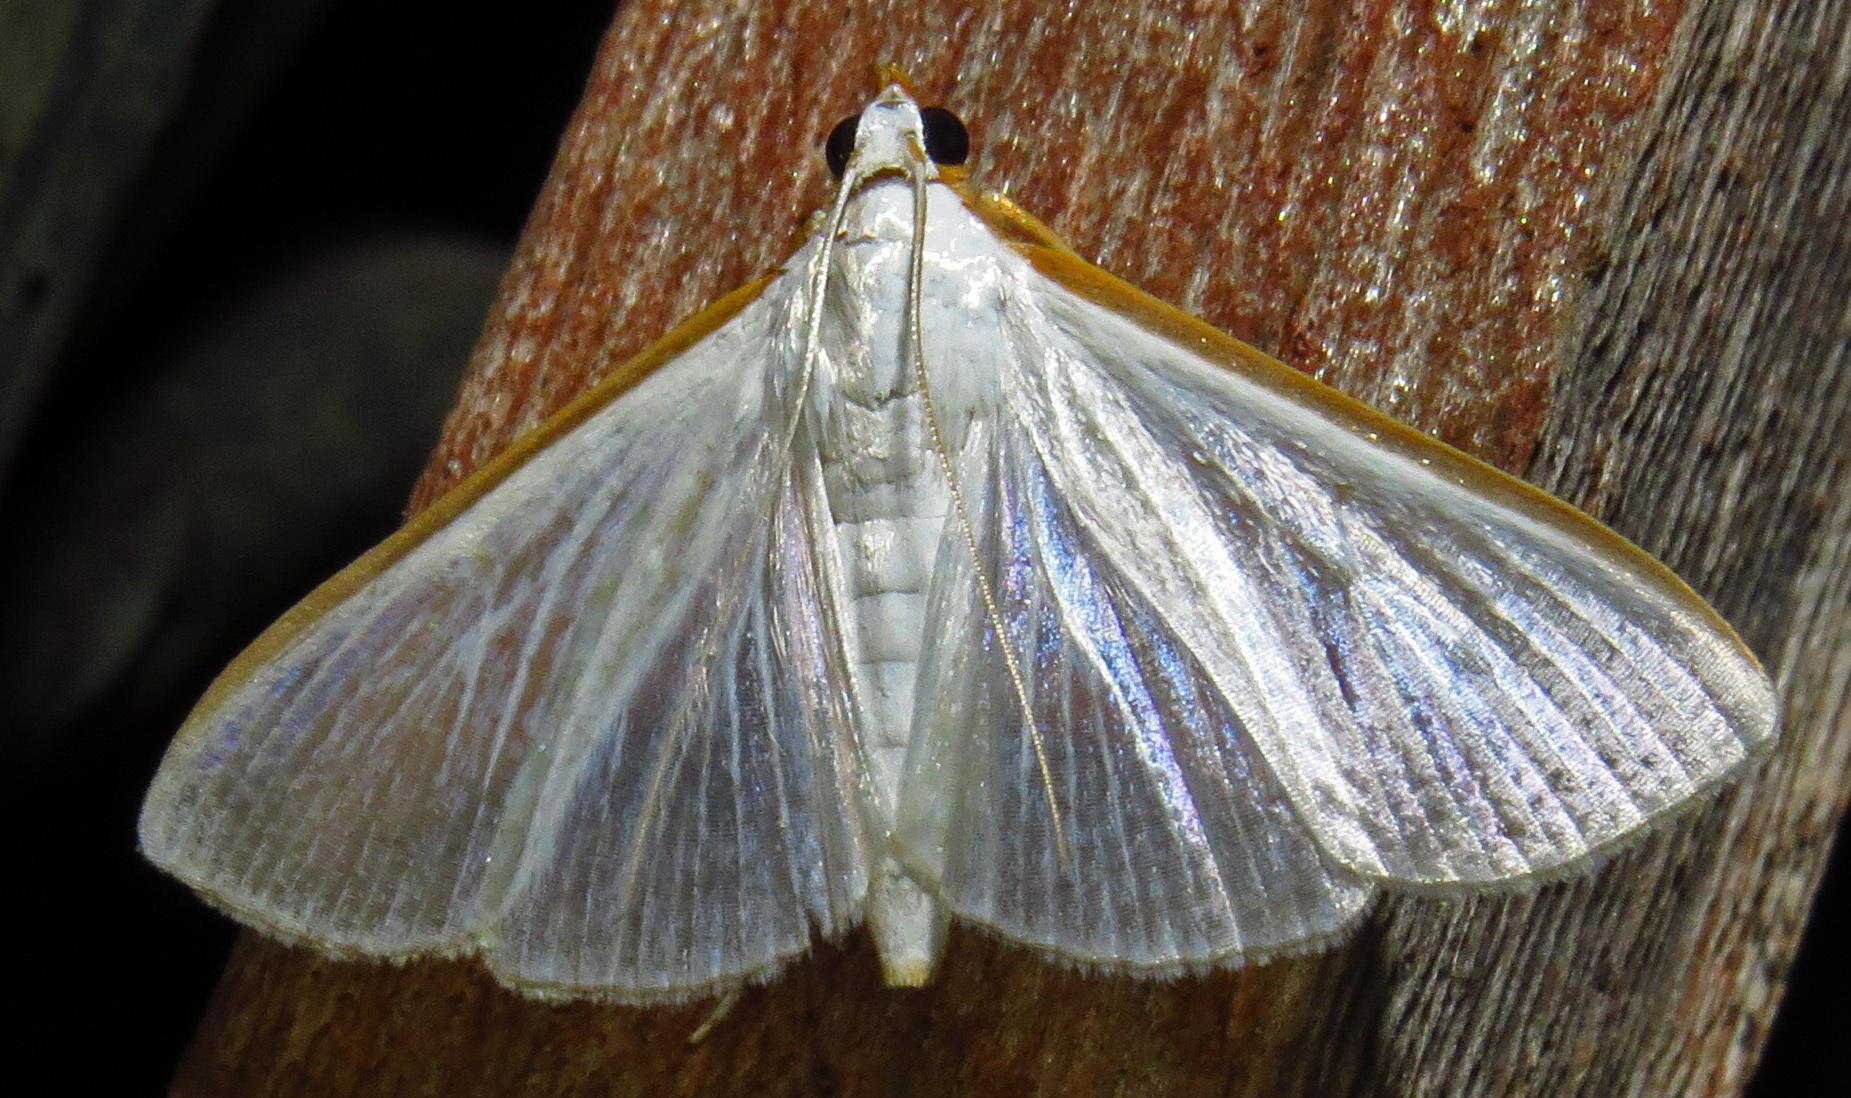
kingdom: Animalia
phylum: Arthropoda
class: Insecta
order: Lepidoptera
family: Crambidae
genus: Diaphania
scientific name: Diaphania costata
